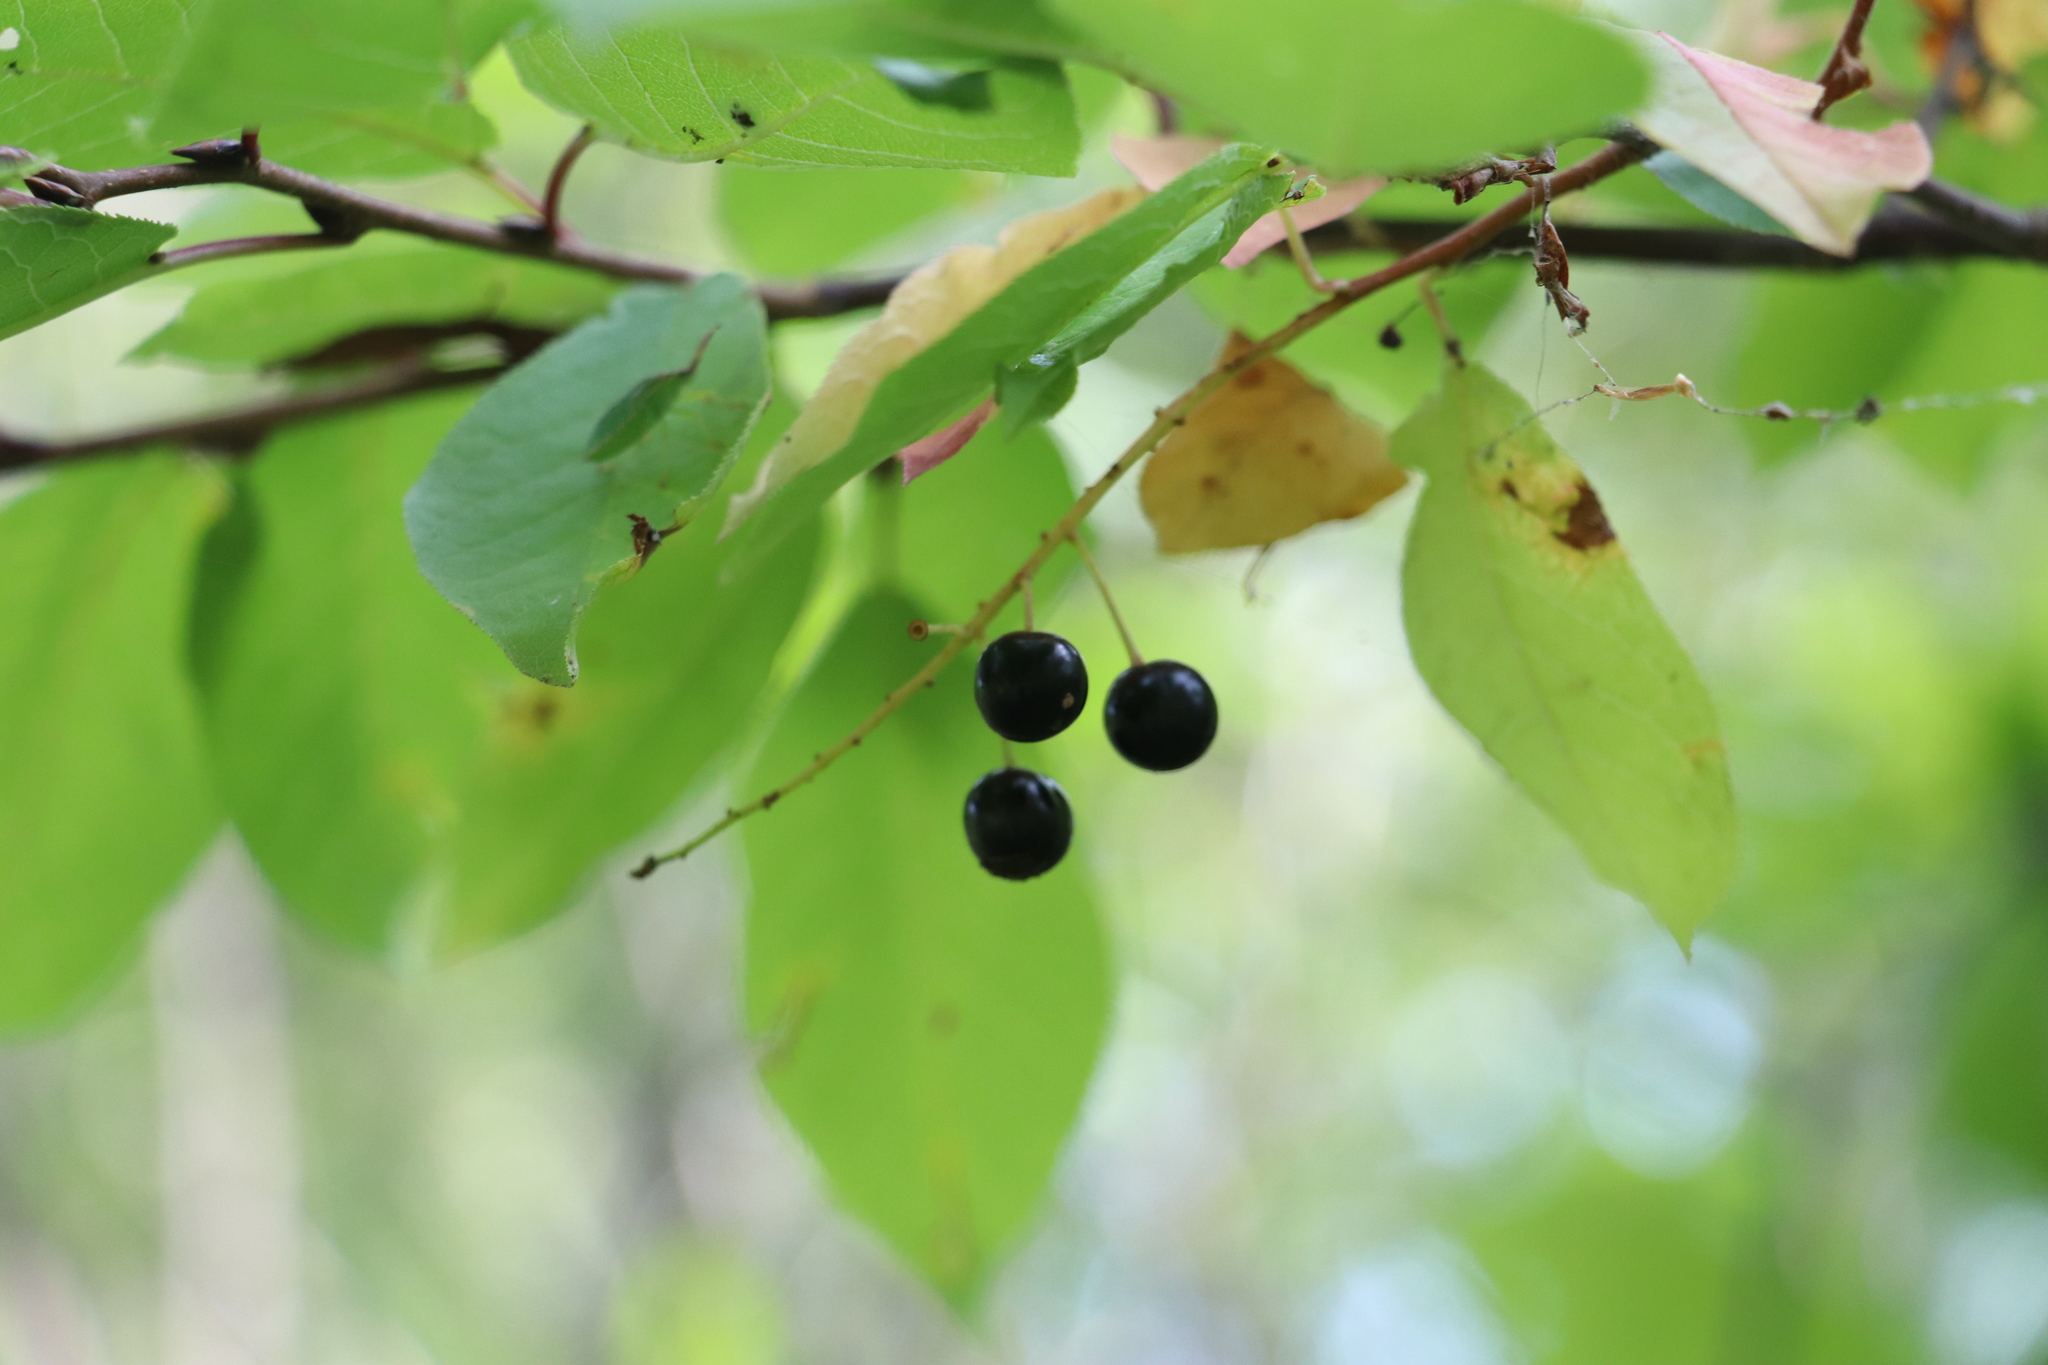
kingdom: Plantae
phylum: Tracheophyta
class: Magnoliopsida
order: Rosales
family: Rosaceae
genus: Prunus
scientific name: Prunus padus
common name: Bird cherry
